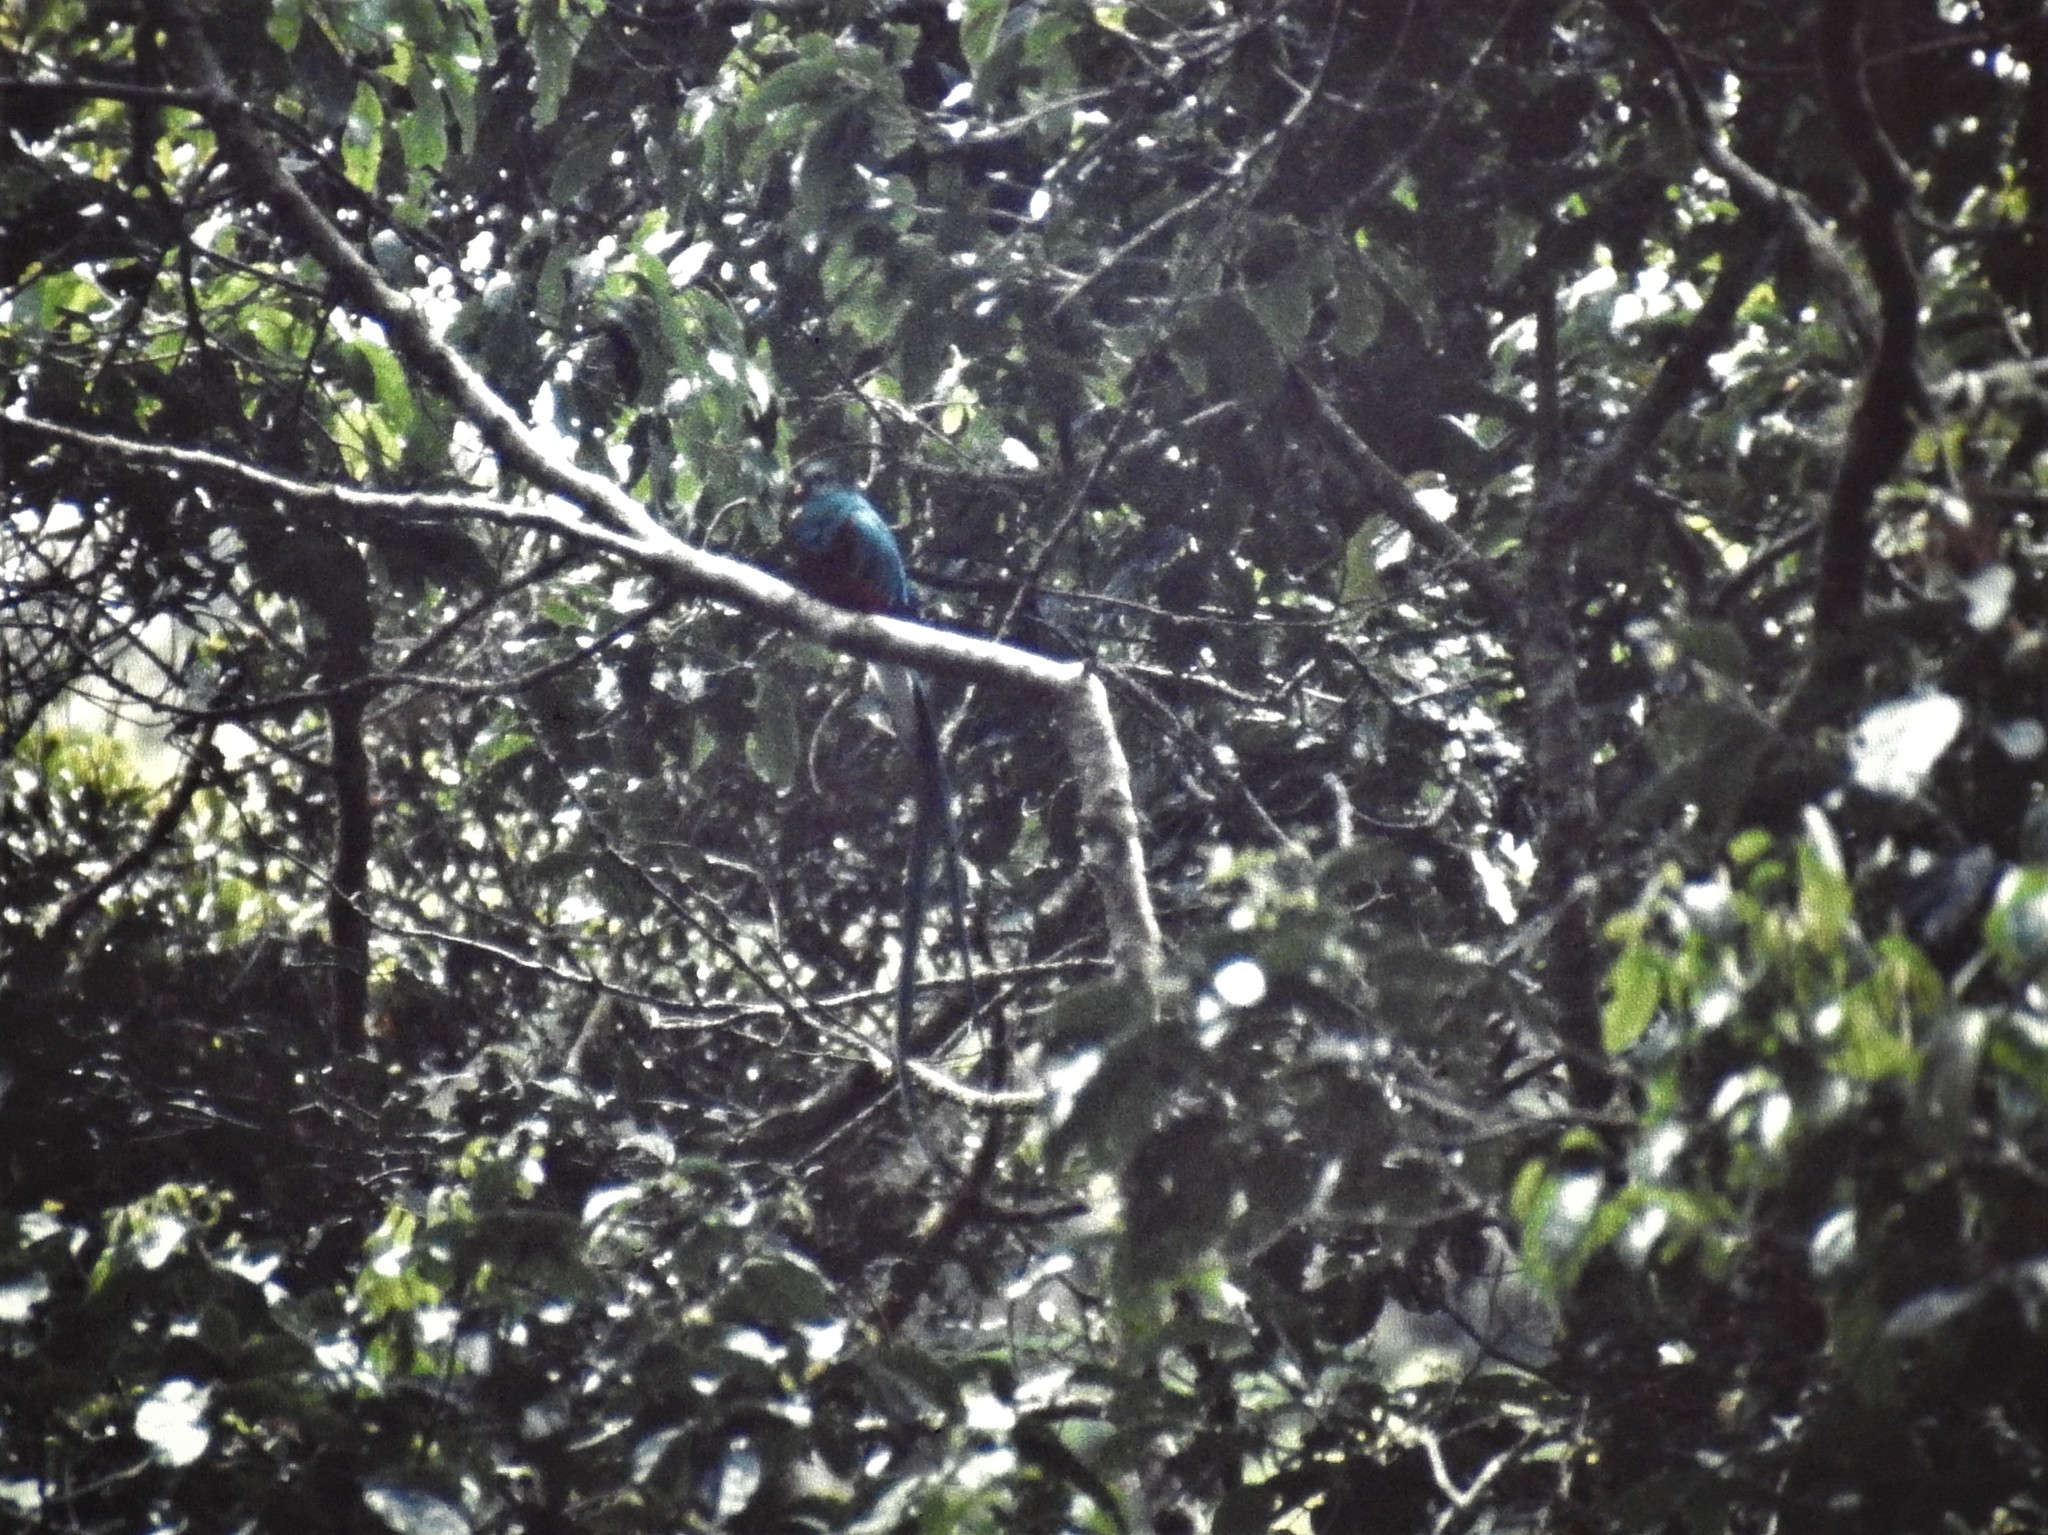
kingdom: Animalia
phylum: Chordata
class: Aves
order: Trogoniformes
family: Trogonidae
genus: Pharomachrus
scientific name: Pharomachrus mocinno
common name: Resplendent quetzal
